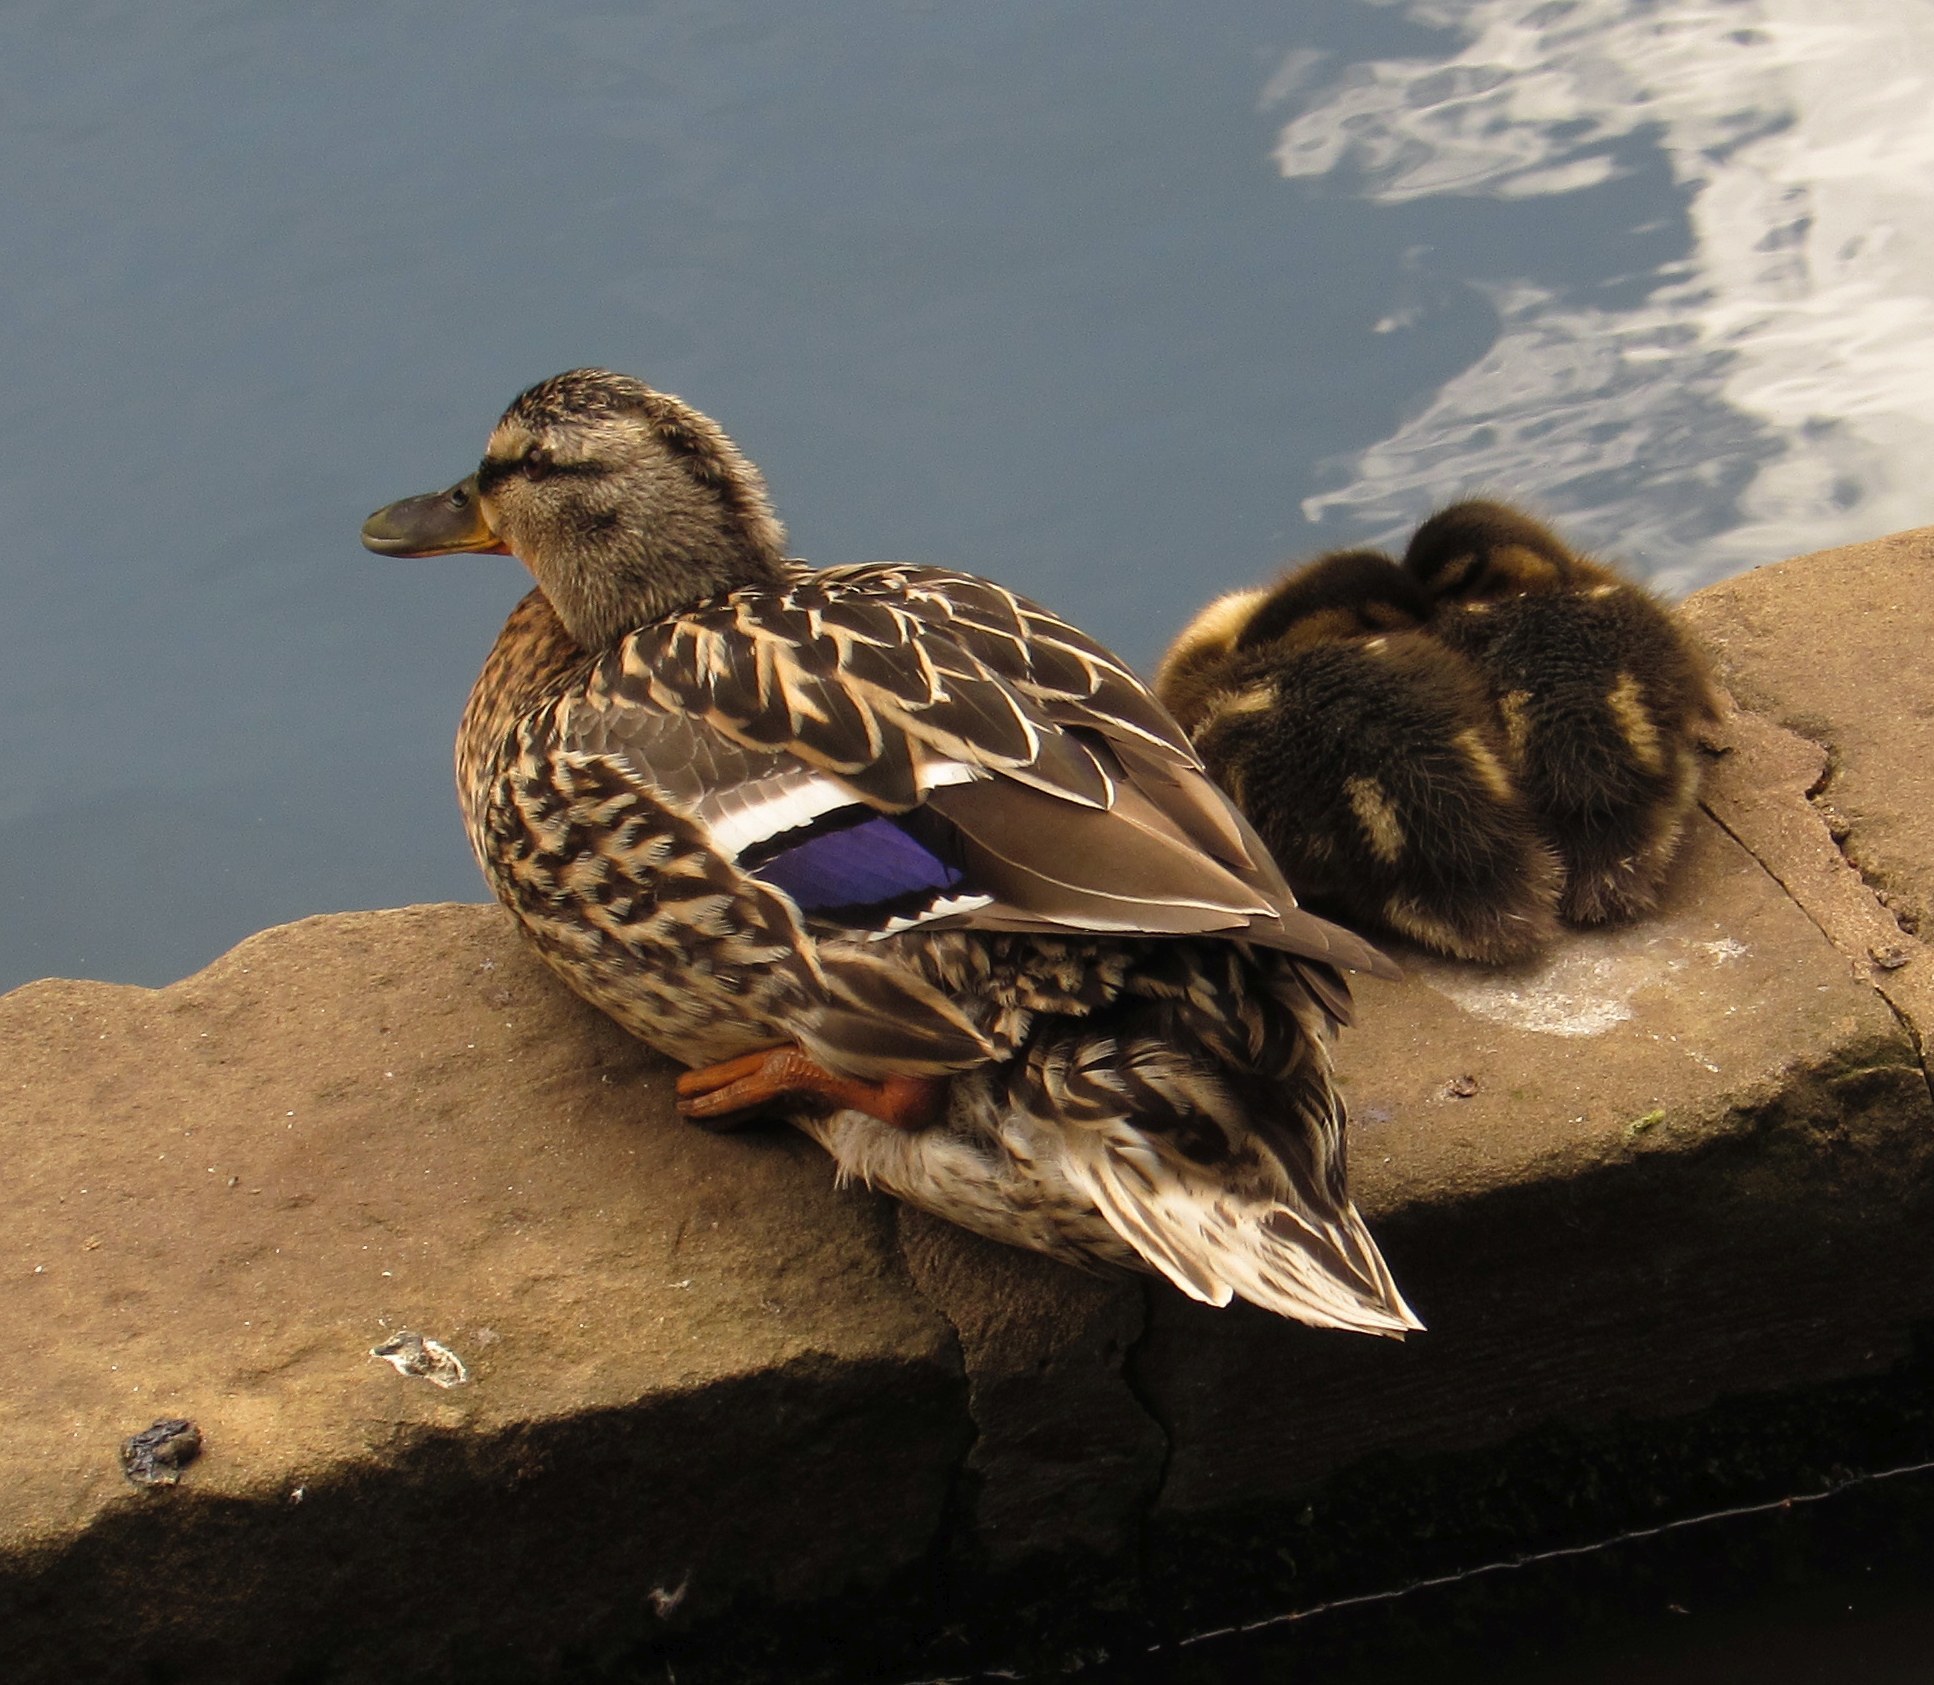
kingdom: Animalia
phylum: Chordata
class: Aves
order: Anseriformes
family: Anatidae
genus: Anas
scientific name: Anas platyrhynchos
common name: Mallard
